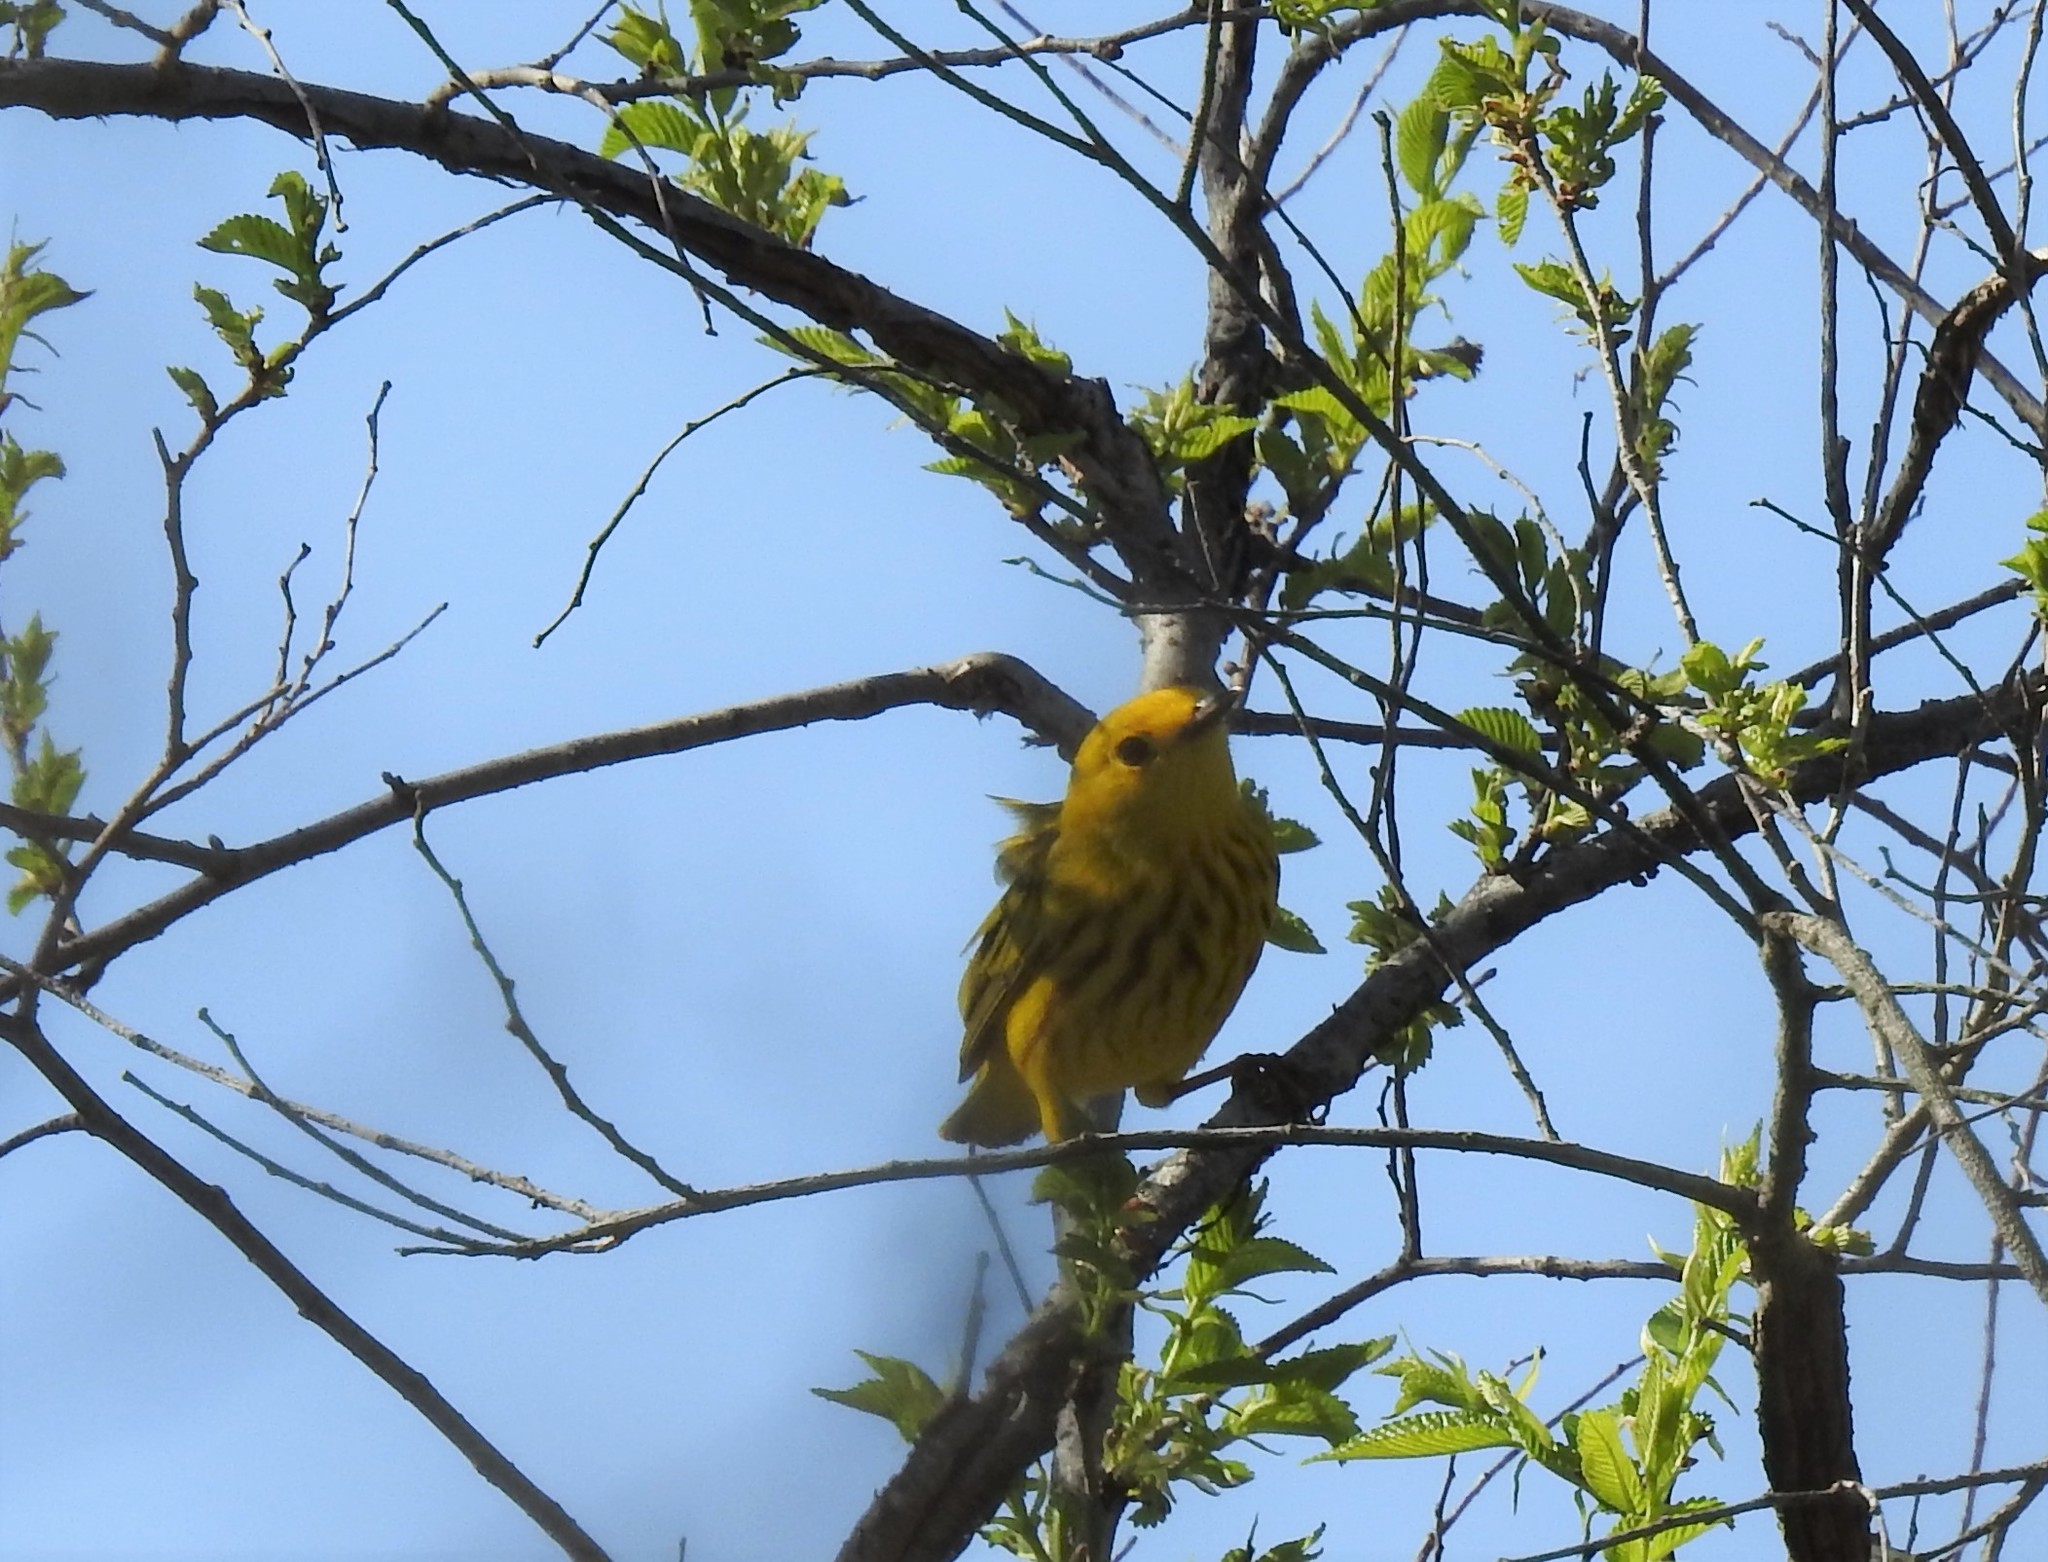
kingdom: Animalia
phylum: Chordata
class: Aves
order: Passeriformes
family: Parulidae
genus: Setophaga
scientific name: Setophaga petechia
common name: Yellow warbler
